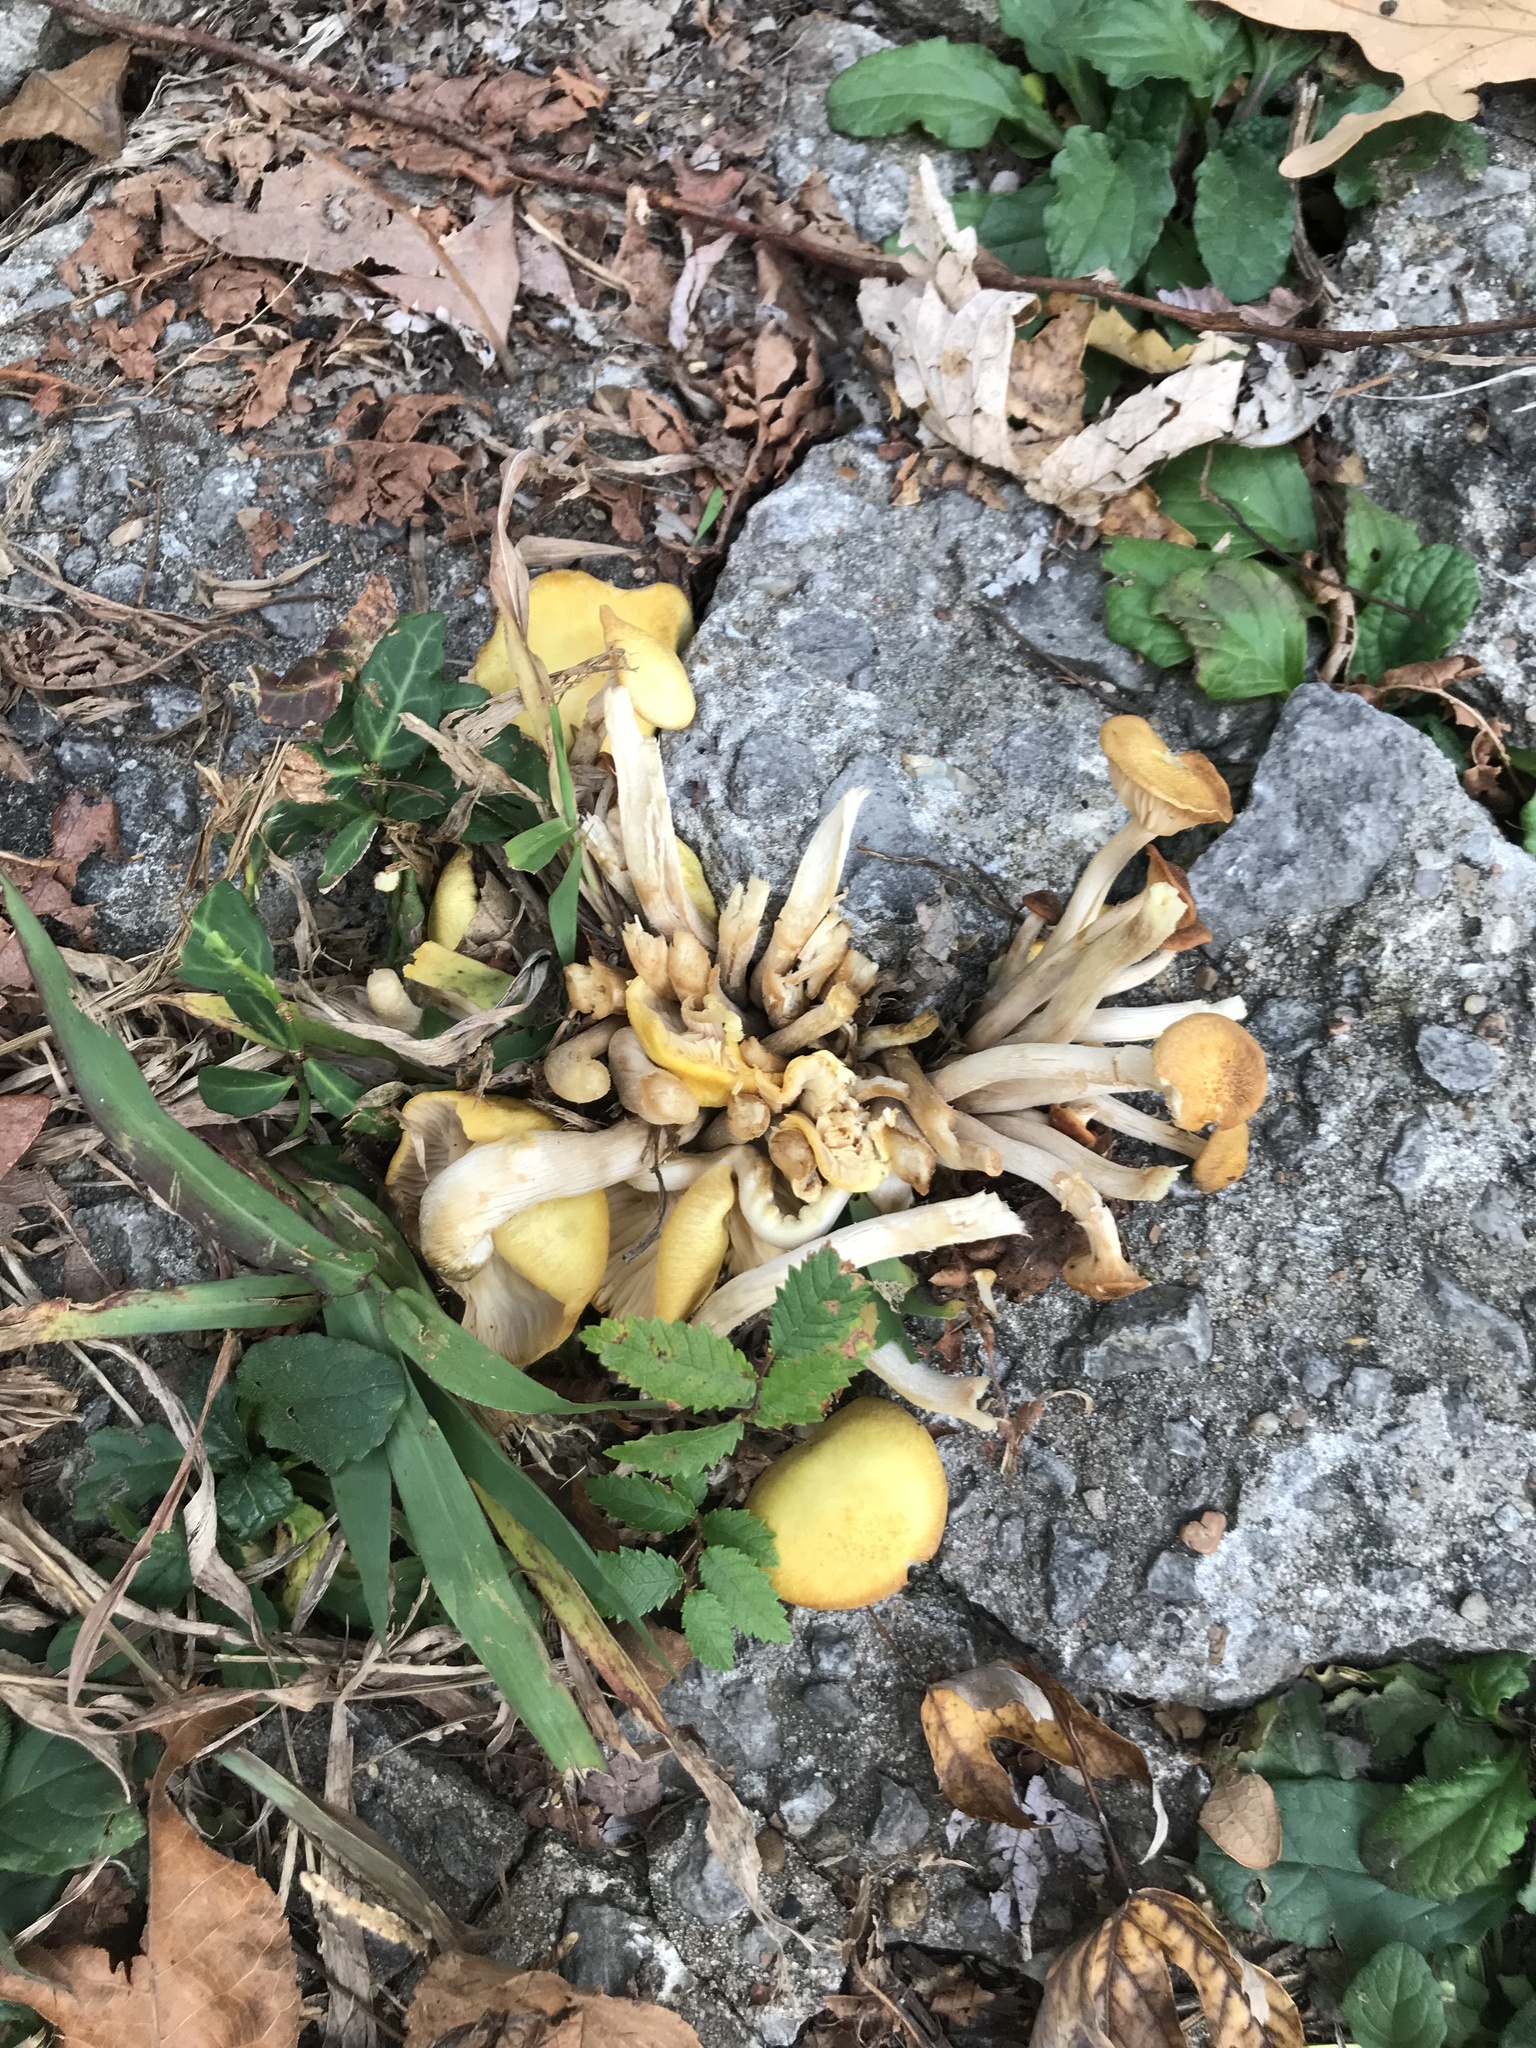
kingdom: Fungi
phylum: Basidiomycota
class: Agaricomycetes
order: Agaricales
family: Physalacriaceae
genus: Desarmillaria
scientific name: Desarmillaria caespitosa
